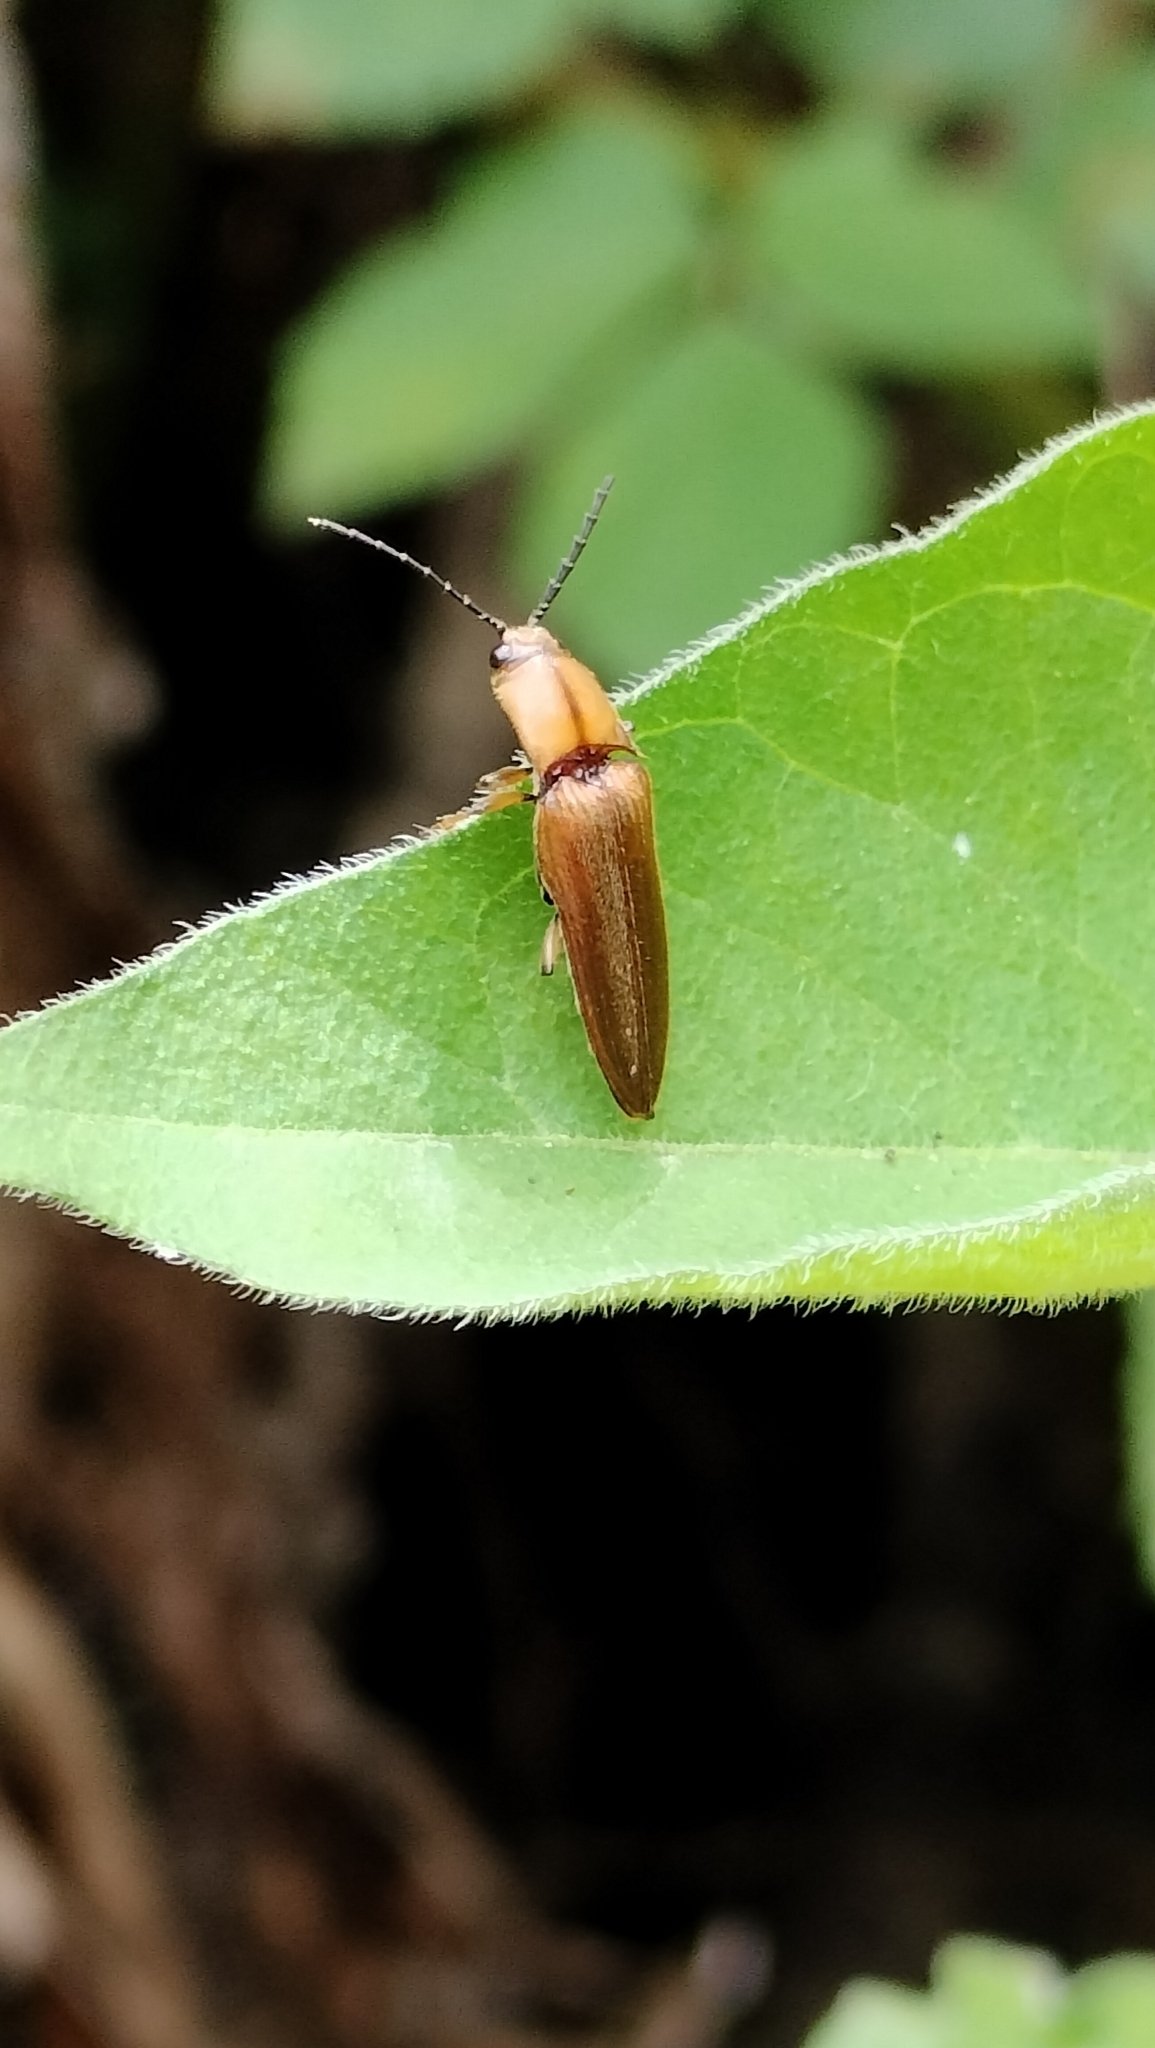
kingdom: Animalia
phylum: Arthropoda
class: Insecta
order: Coleoptera
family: Elateridae
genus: Sphaenelater
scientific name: Sphaenelater
